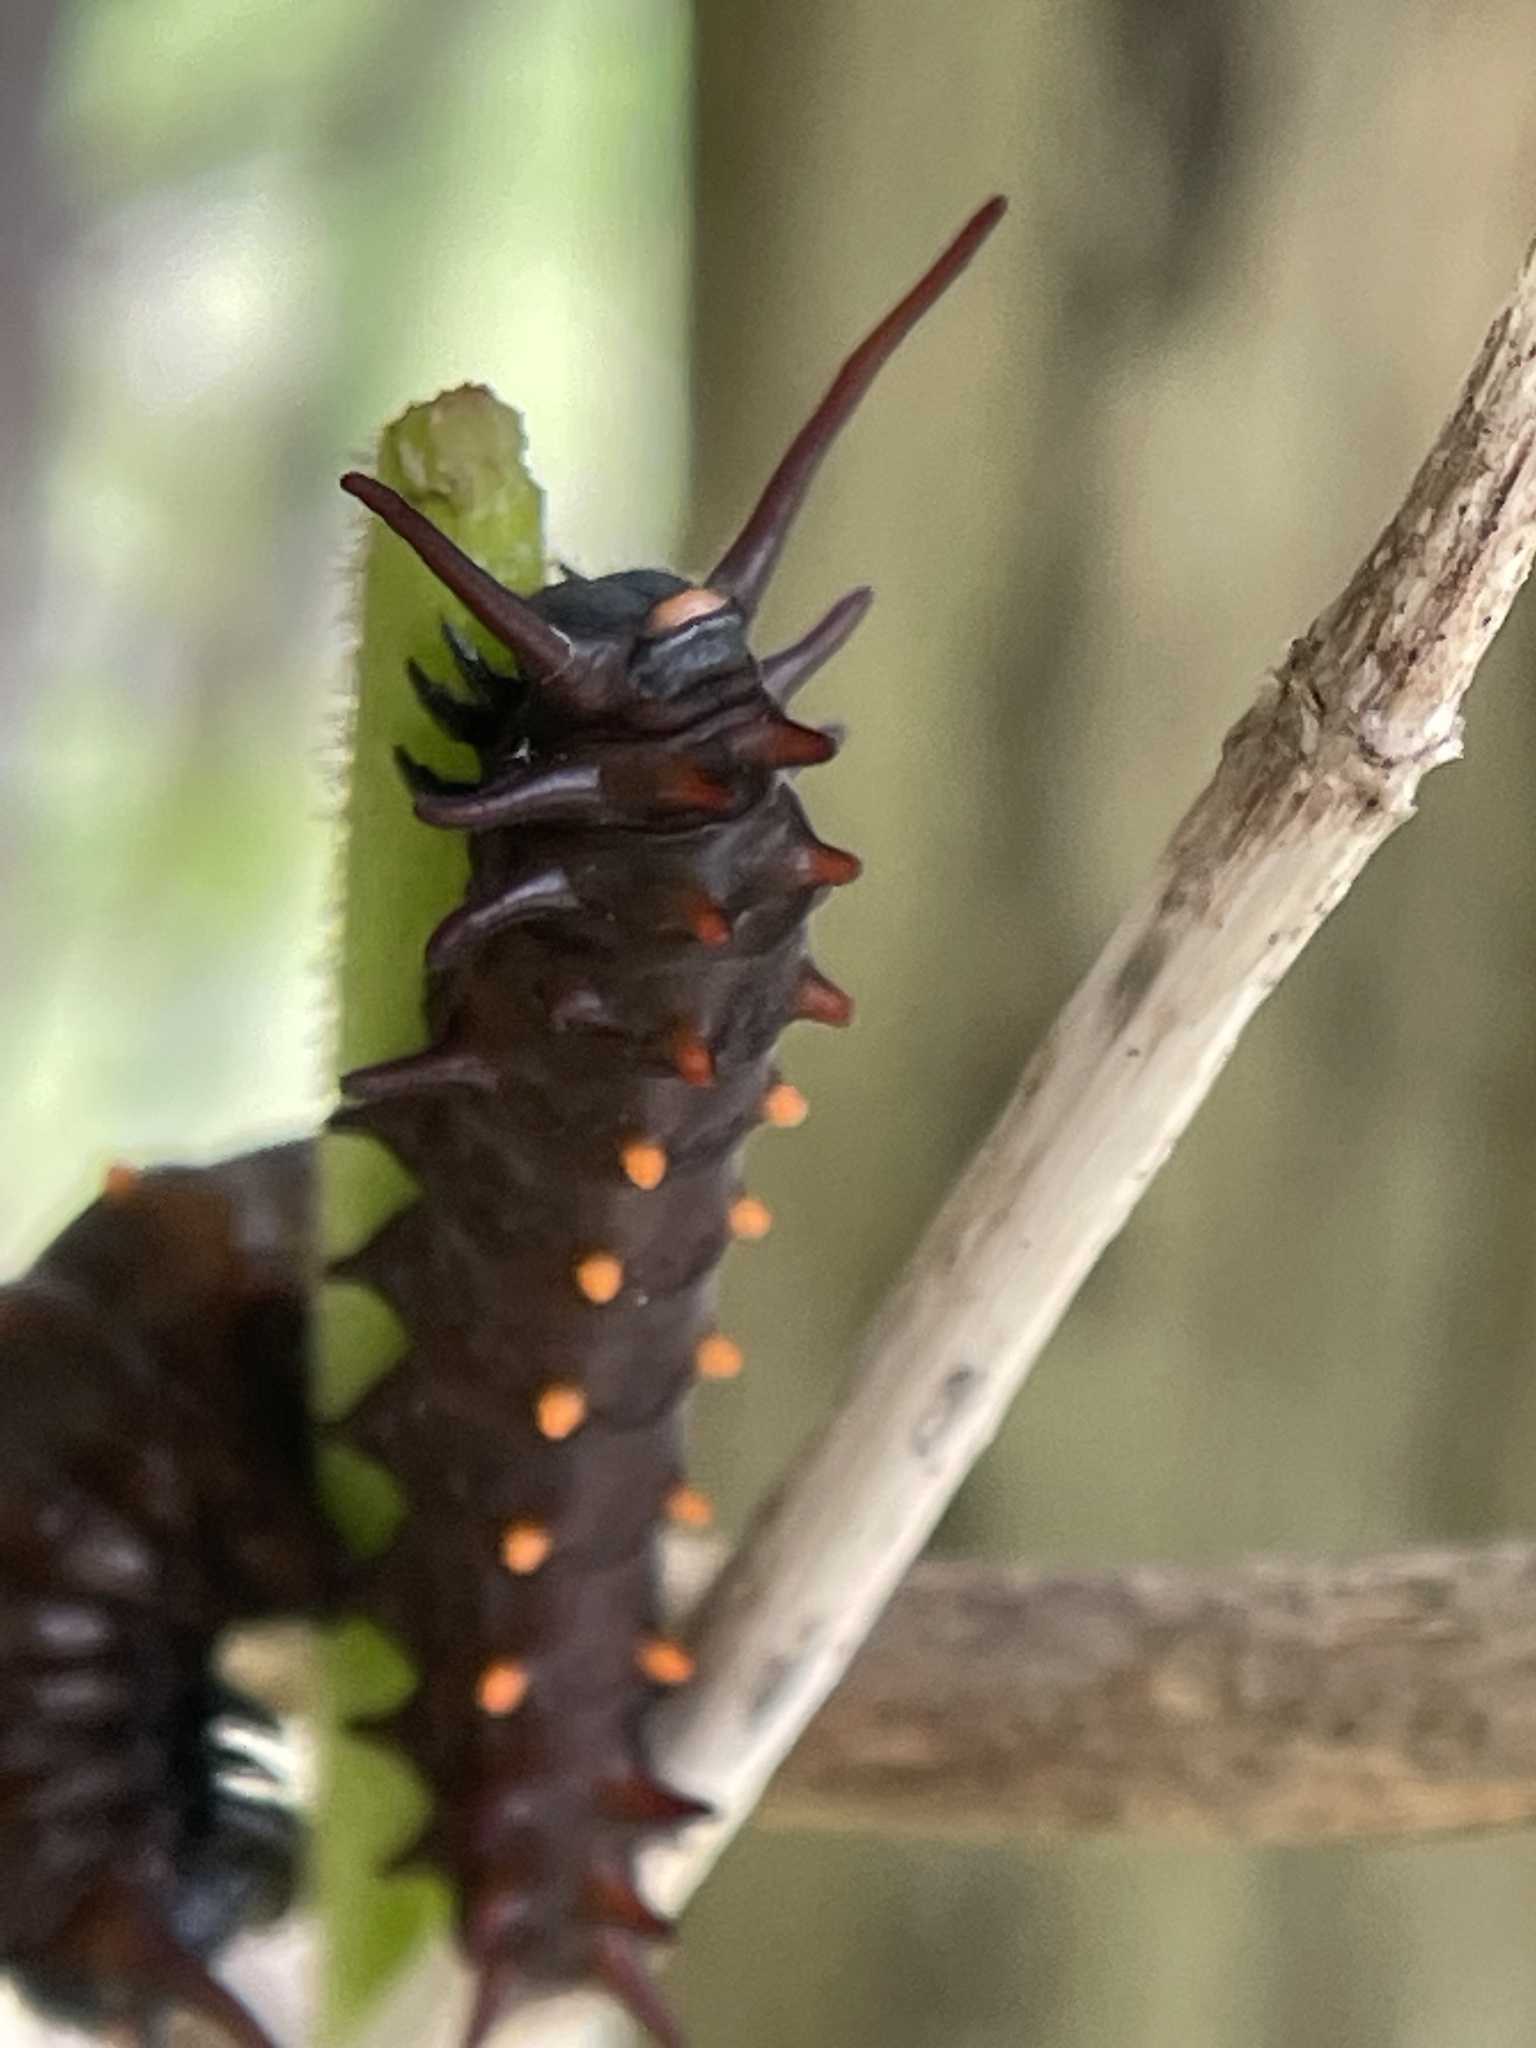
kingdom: Animalia
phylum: Arthropoda
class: Insecta
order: Lepidoptera
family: Papilionidae
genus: Battus
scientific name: Battus philenor
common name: Pipevine swallowtail
